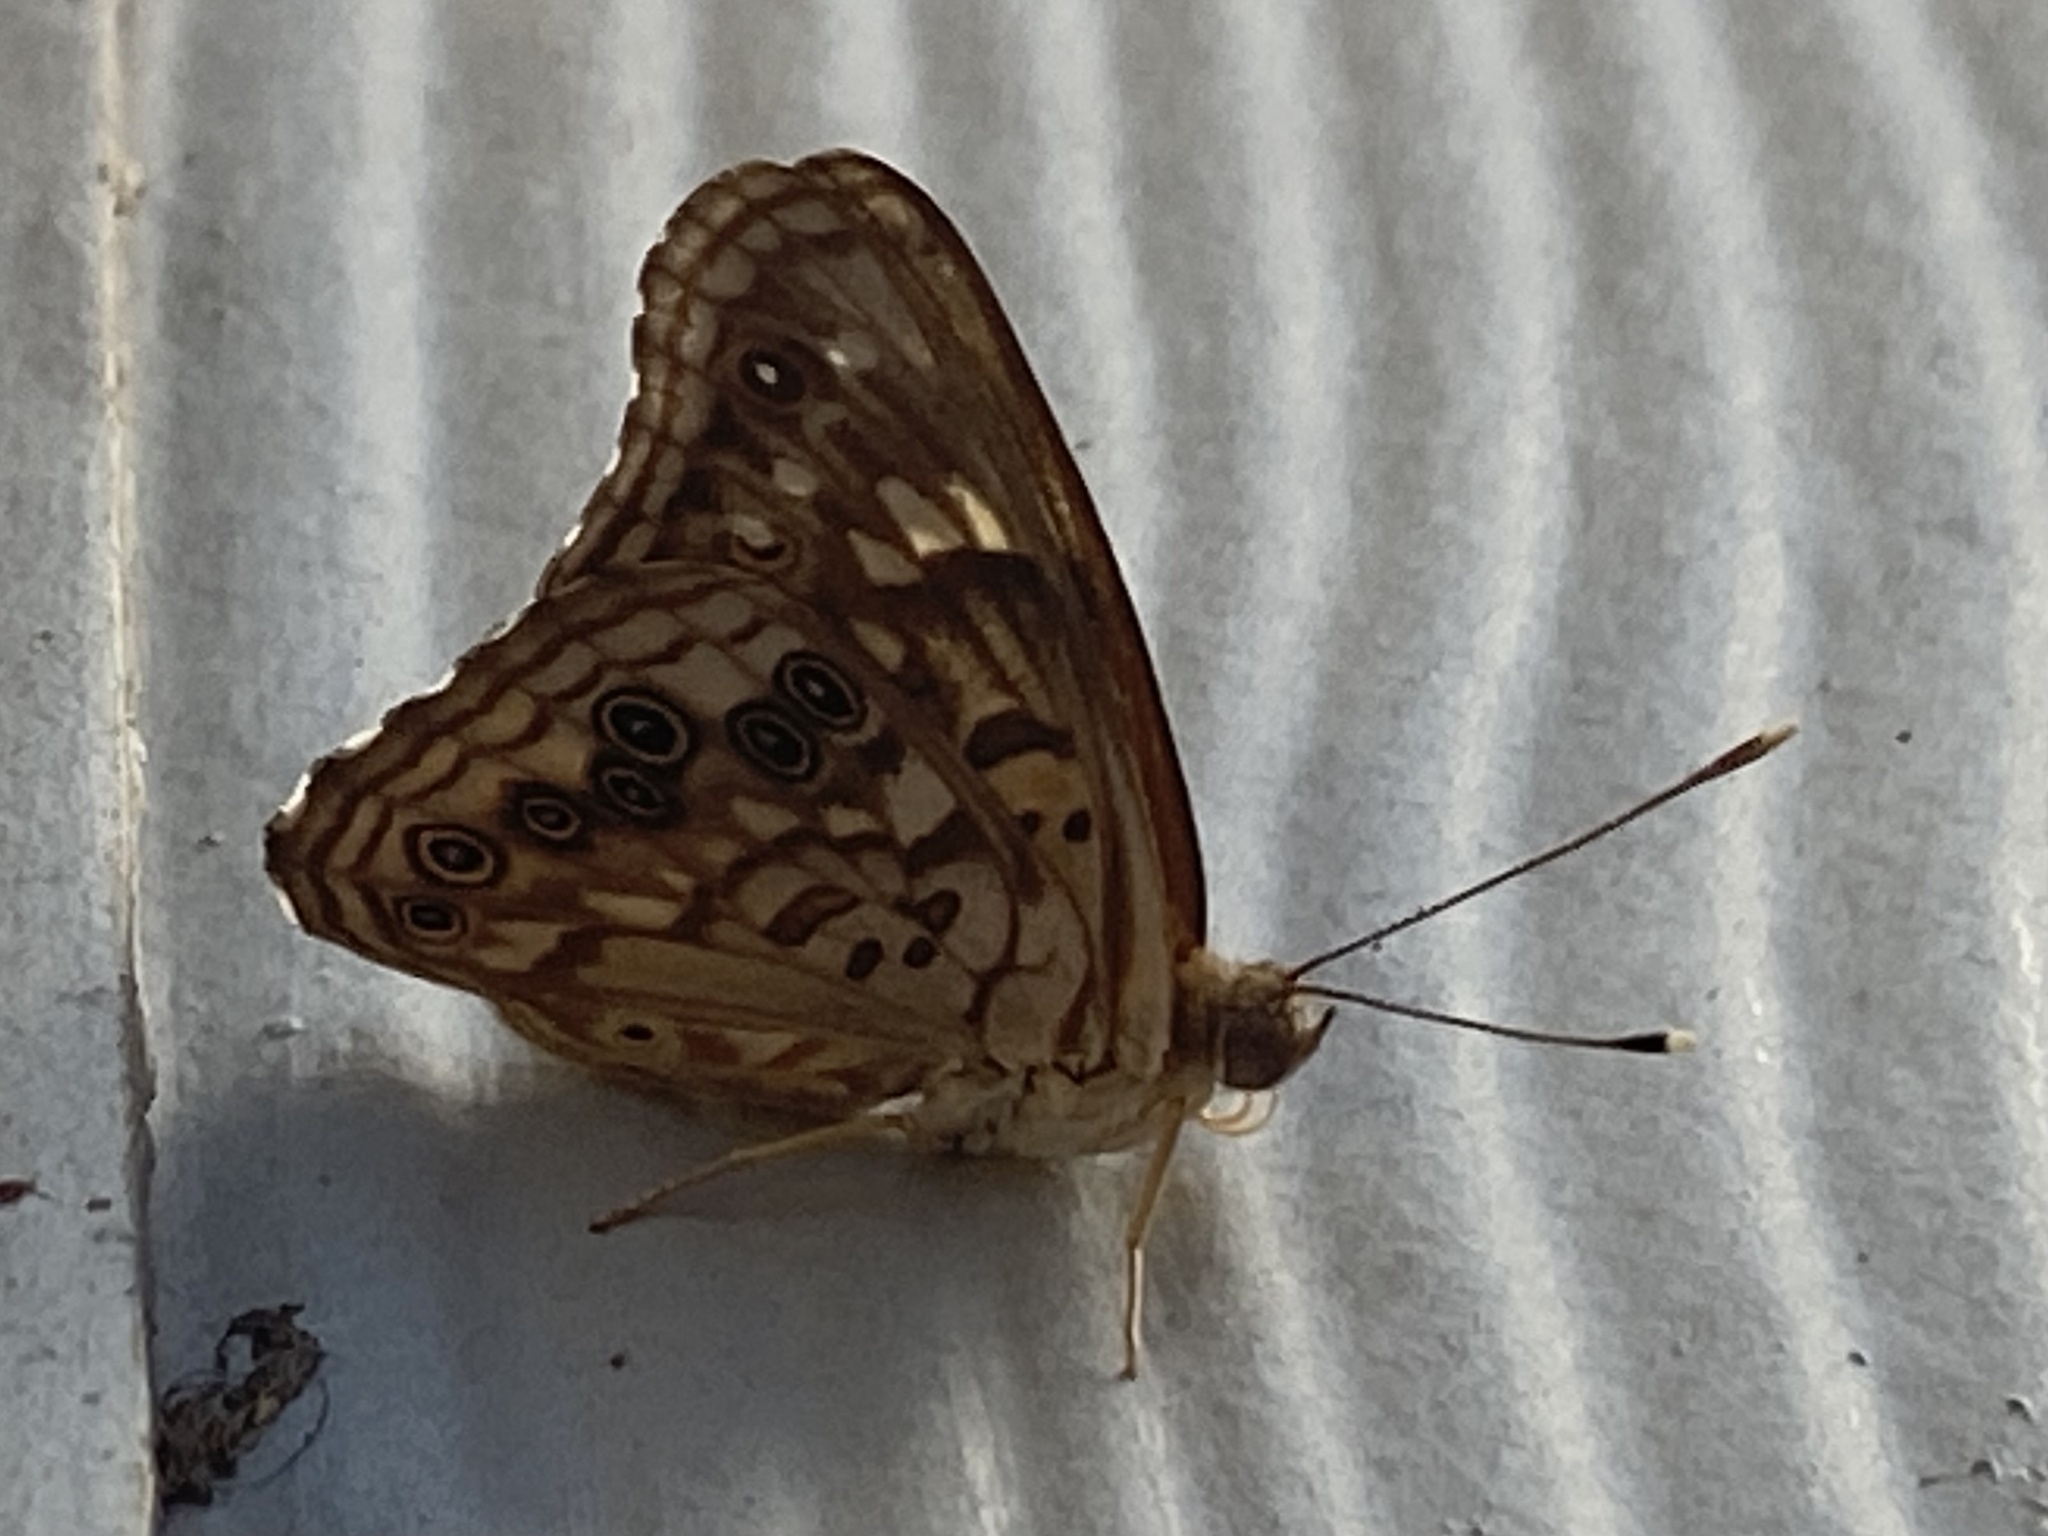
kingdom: Animalia
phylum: Arthropoda
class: Insecta
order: Lepidoptera
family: Nymphalidae
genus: Asterocampa
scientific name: Asterocampa celtis
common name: Hackberry emperor
